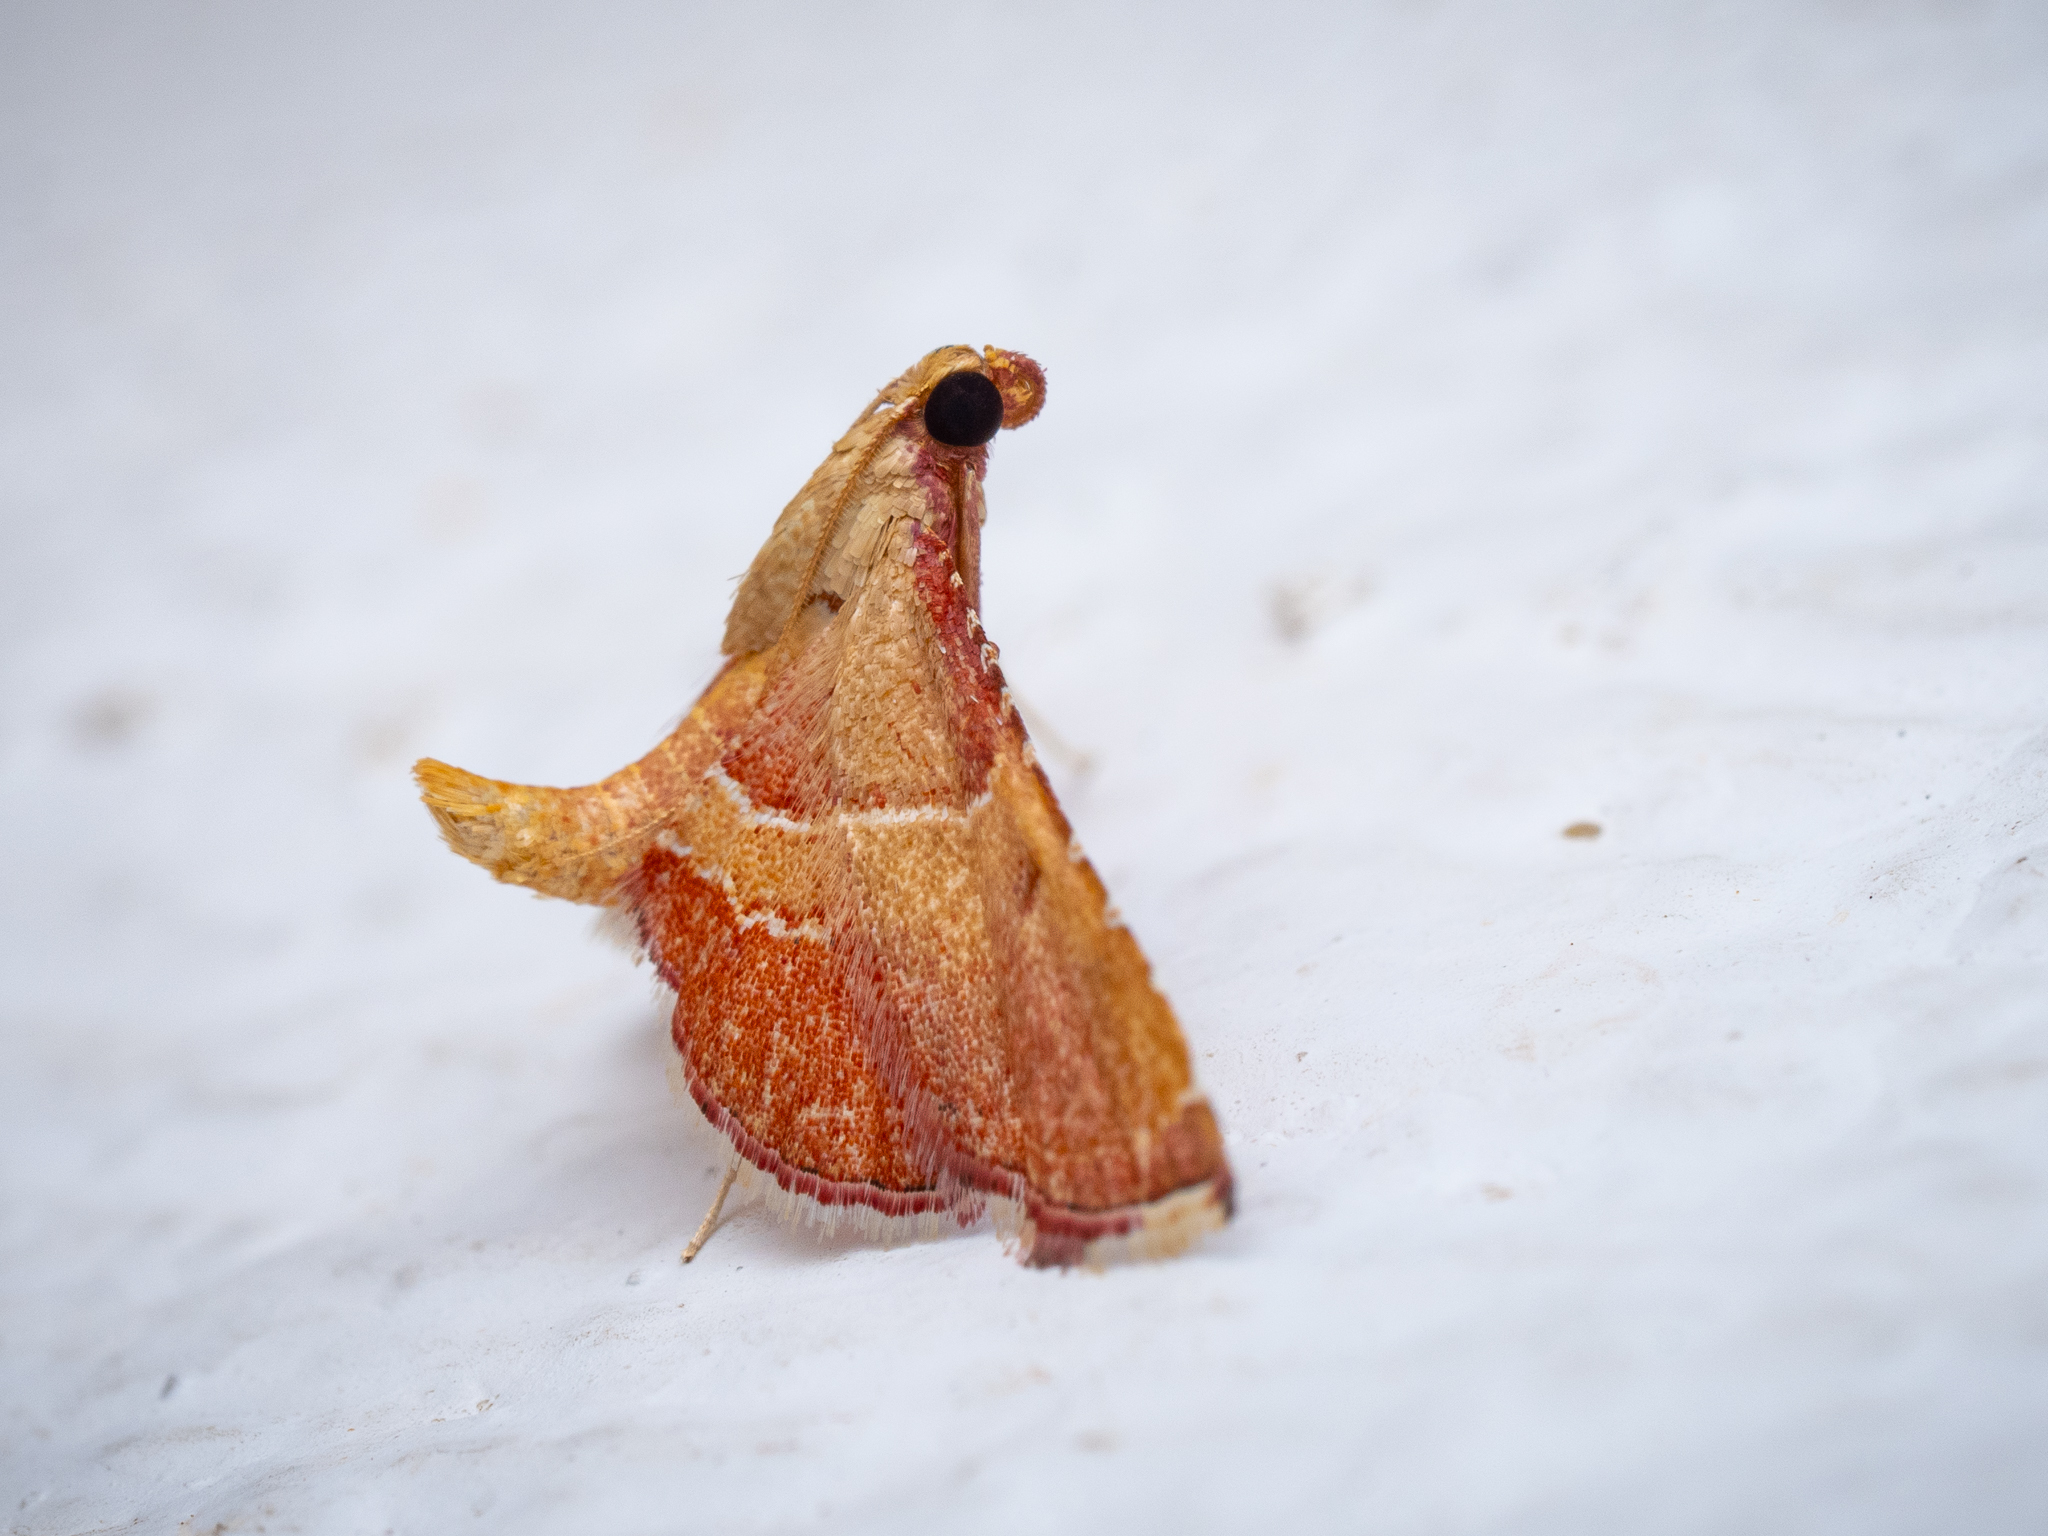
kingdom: Animalia
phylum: Arthropoda
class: Insecta
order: Lepidoptera
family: Pyralidae
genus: Endotricha
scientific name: Endotricha flammealis
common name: Rosy tabby
